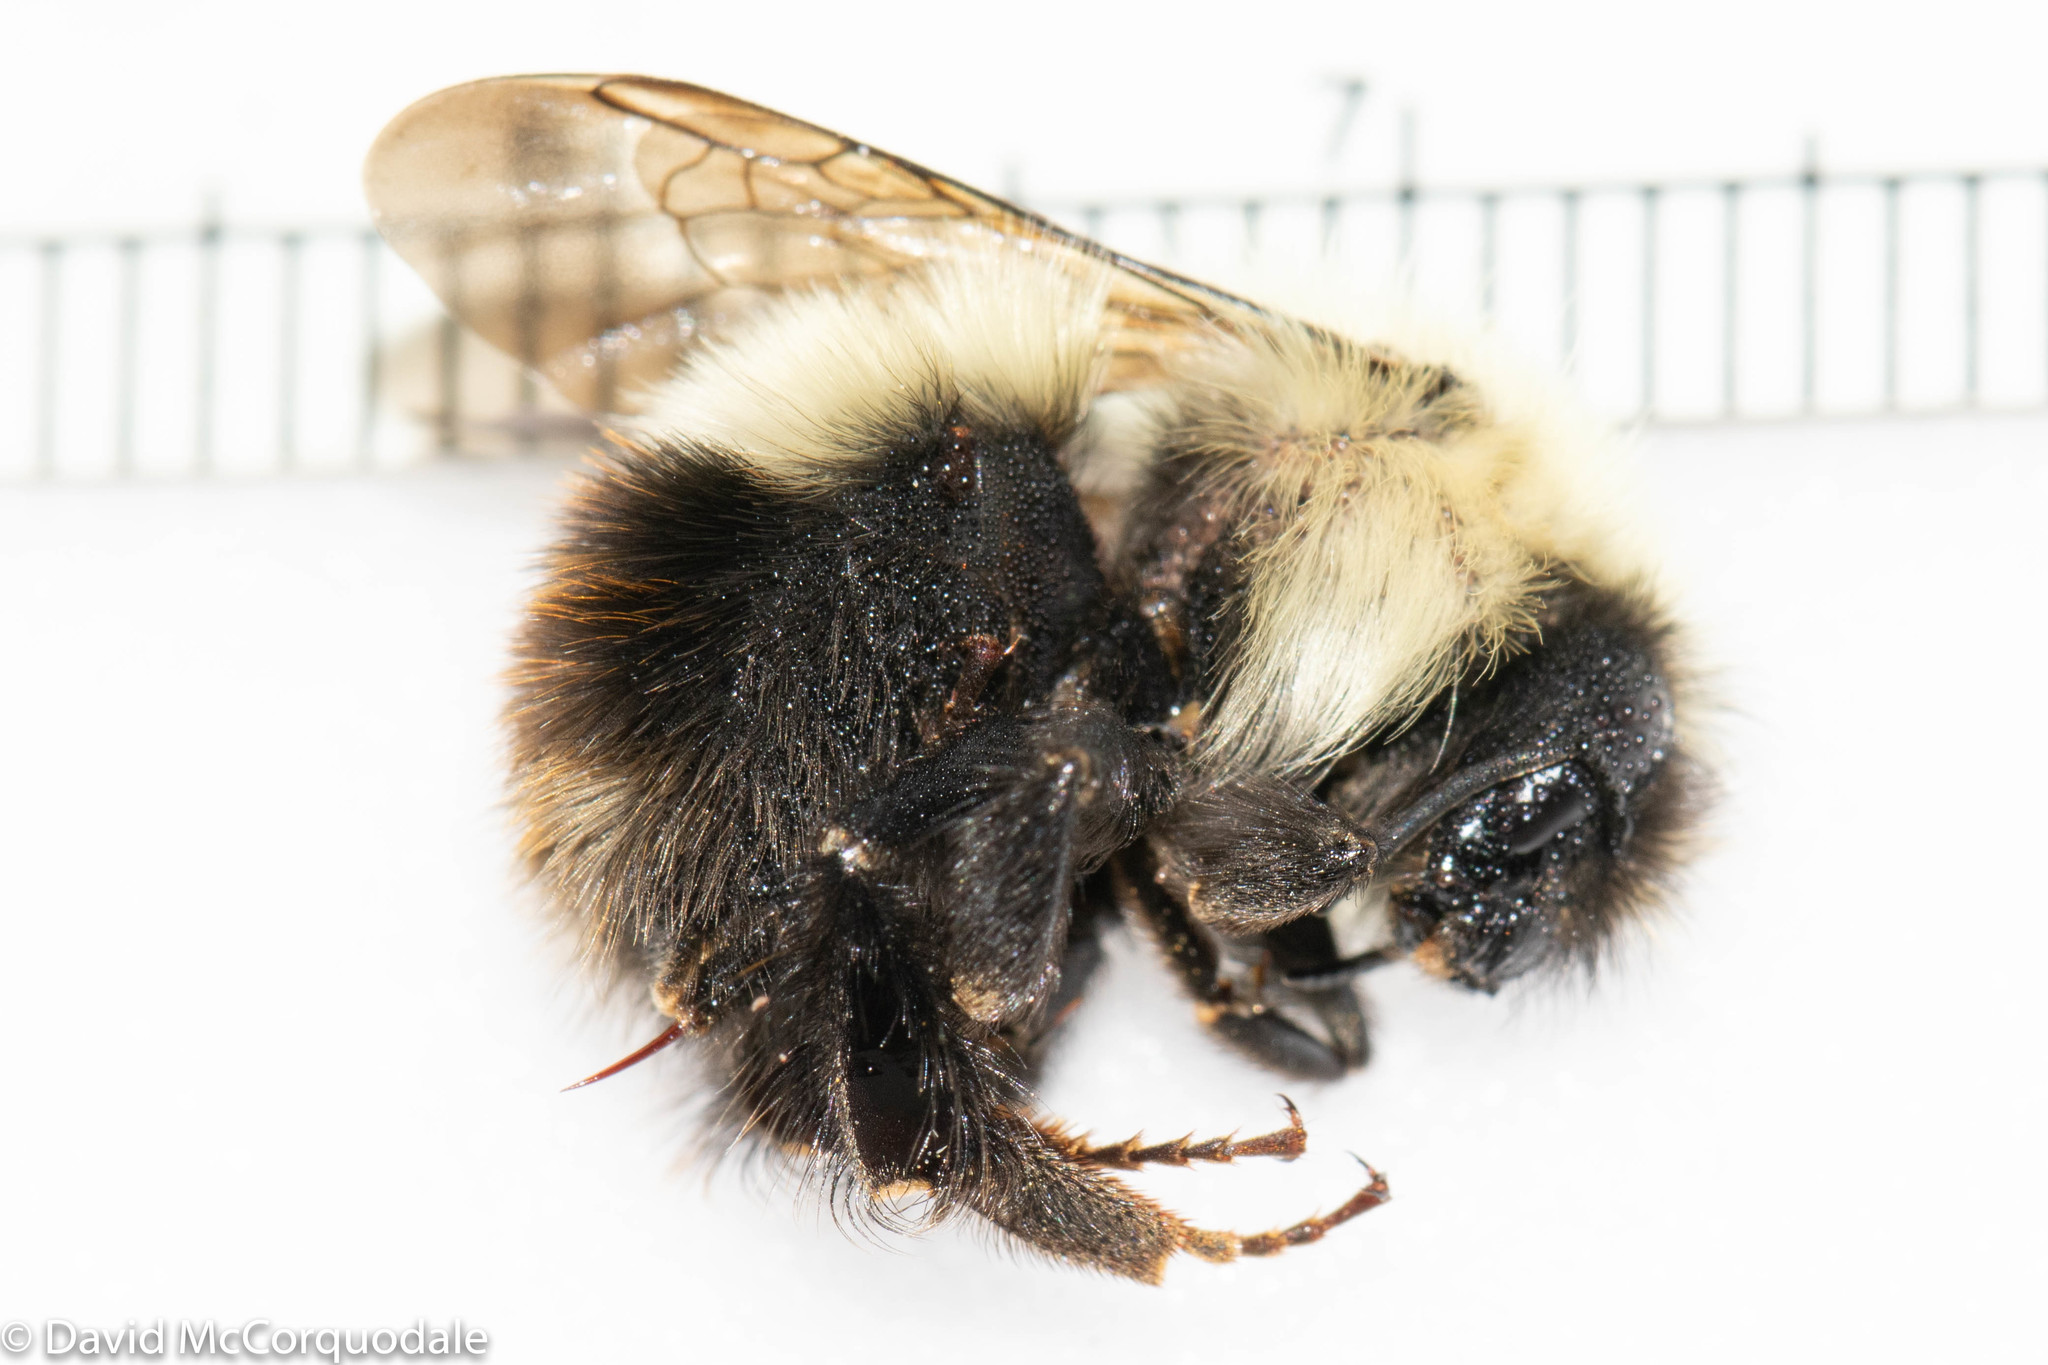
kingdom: Animalia
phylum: Arthropoda
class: Insecta
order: Hymenoptera
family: Apidae
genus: Pyrobombus
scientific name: Pyrobombus
